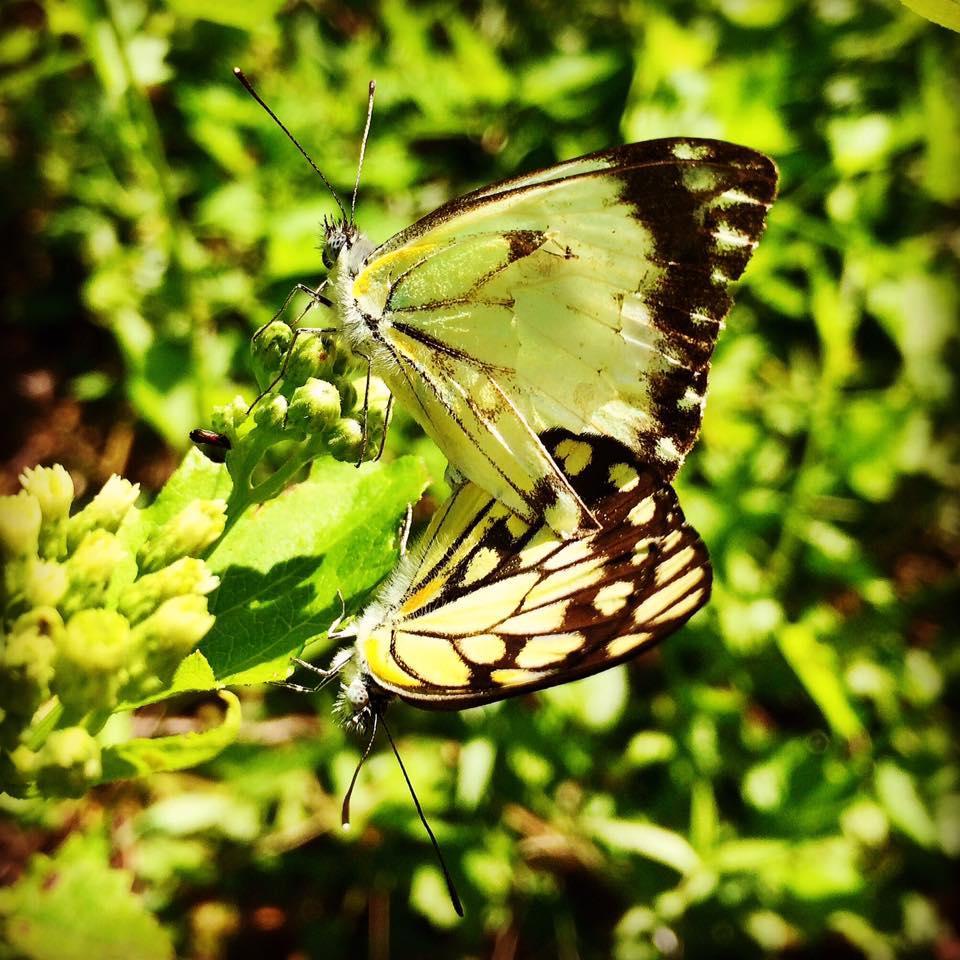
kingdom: Animalia
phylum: Arthropoda
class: Insecta
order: Lepidoptera
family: Pieridae
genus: Belenois
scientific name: Belenois creona
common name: African caper white
